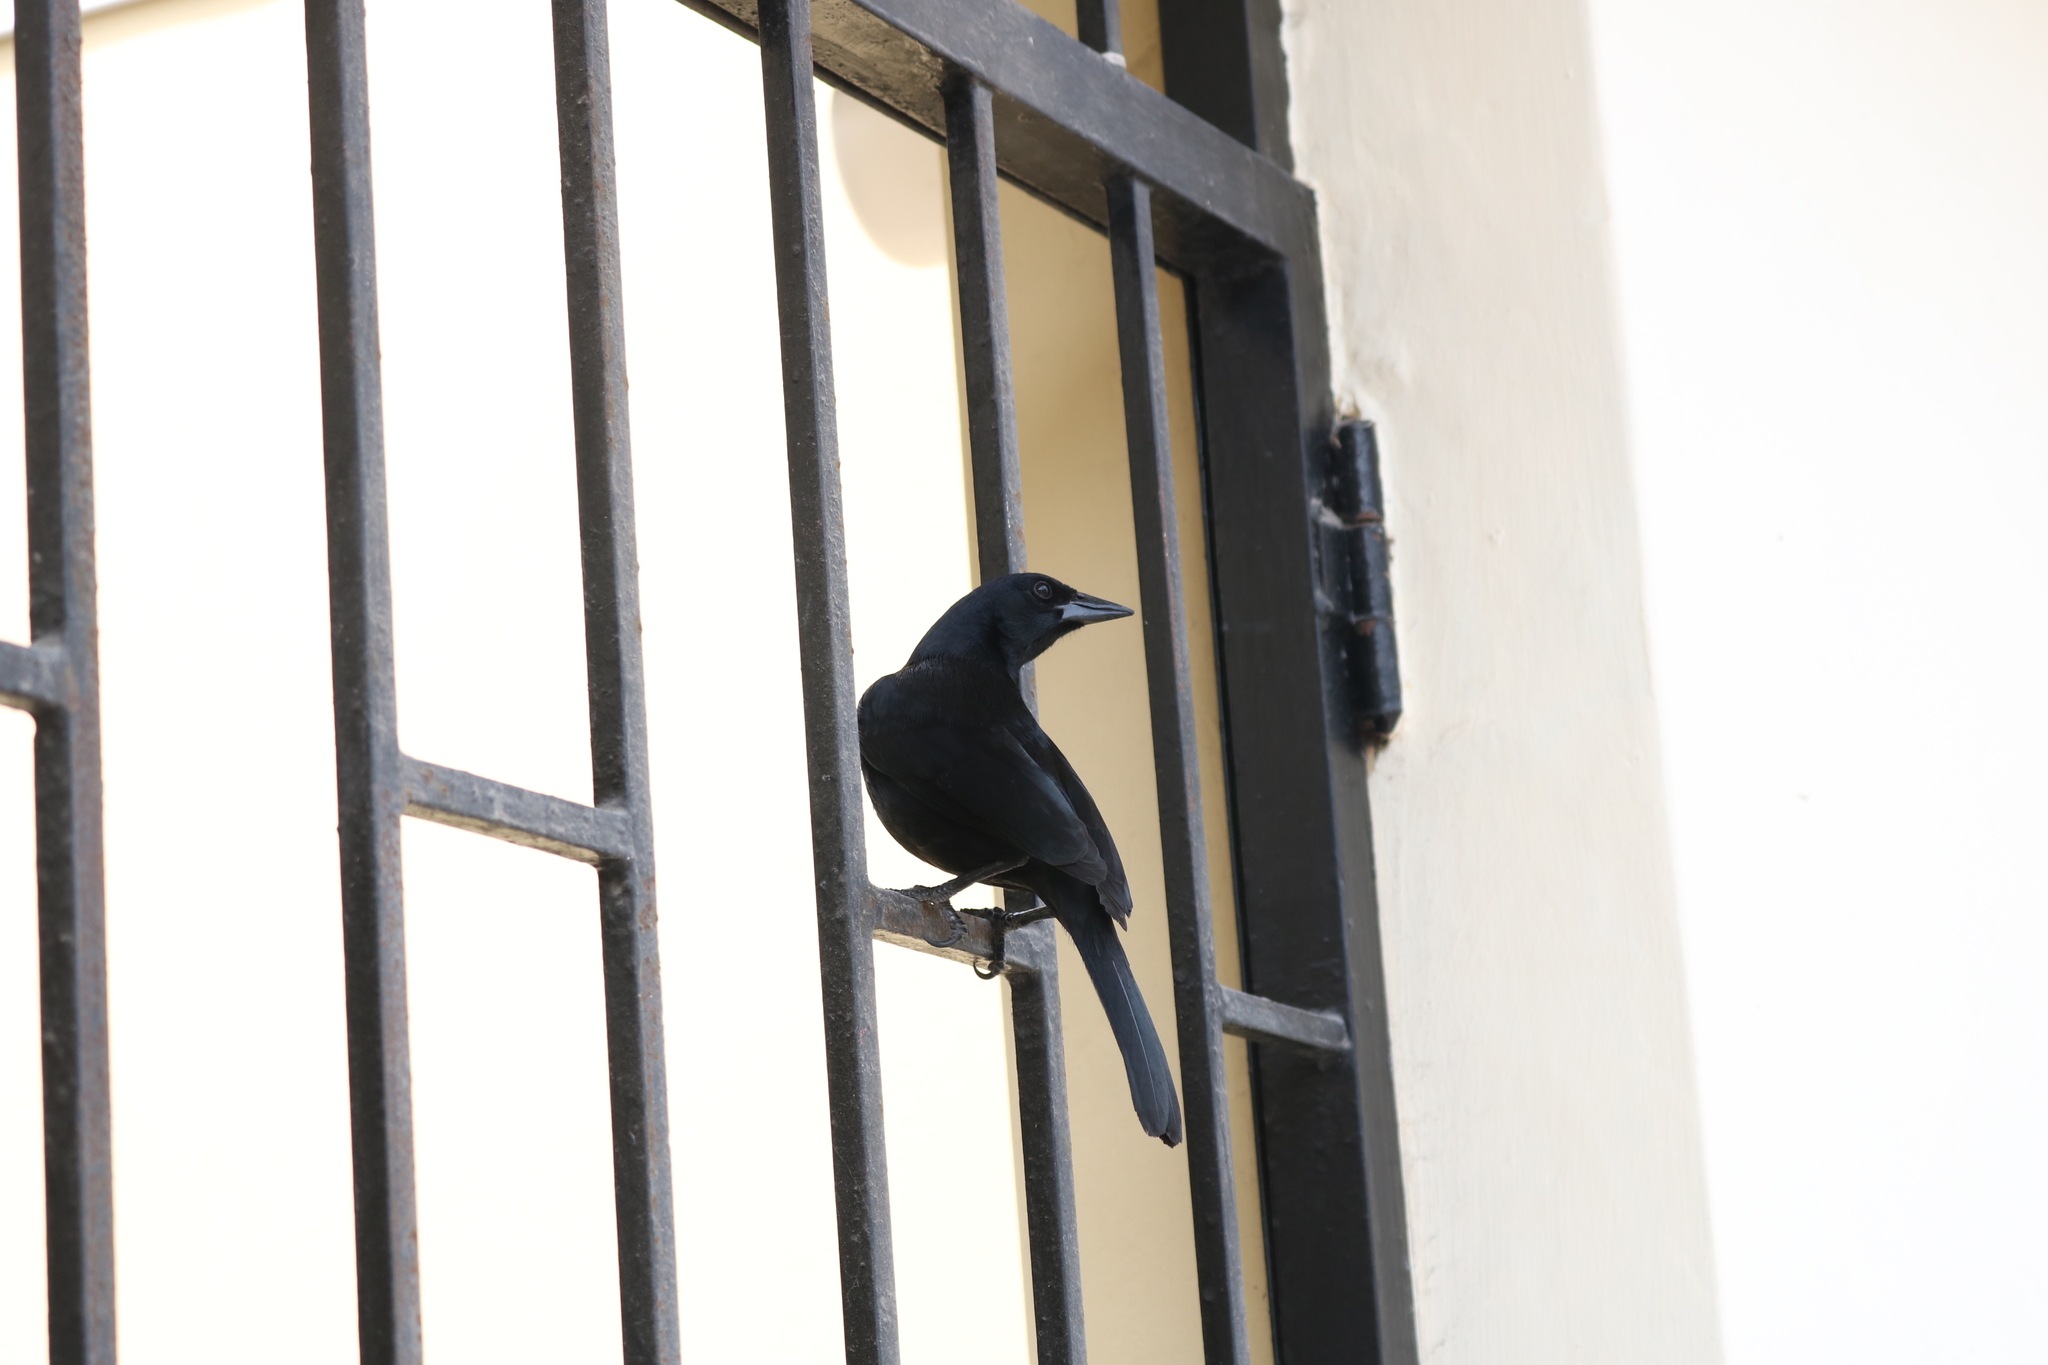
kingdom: Animalia
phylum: Chordata
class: Aves
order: Passeriformes
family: Icteridae
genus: Dives
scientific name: Dives warczewiczi
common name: Scrub blackbird
